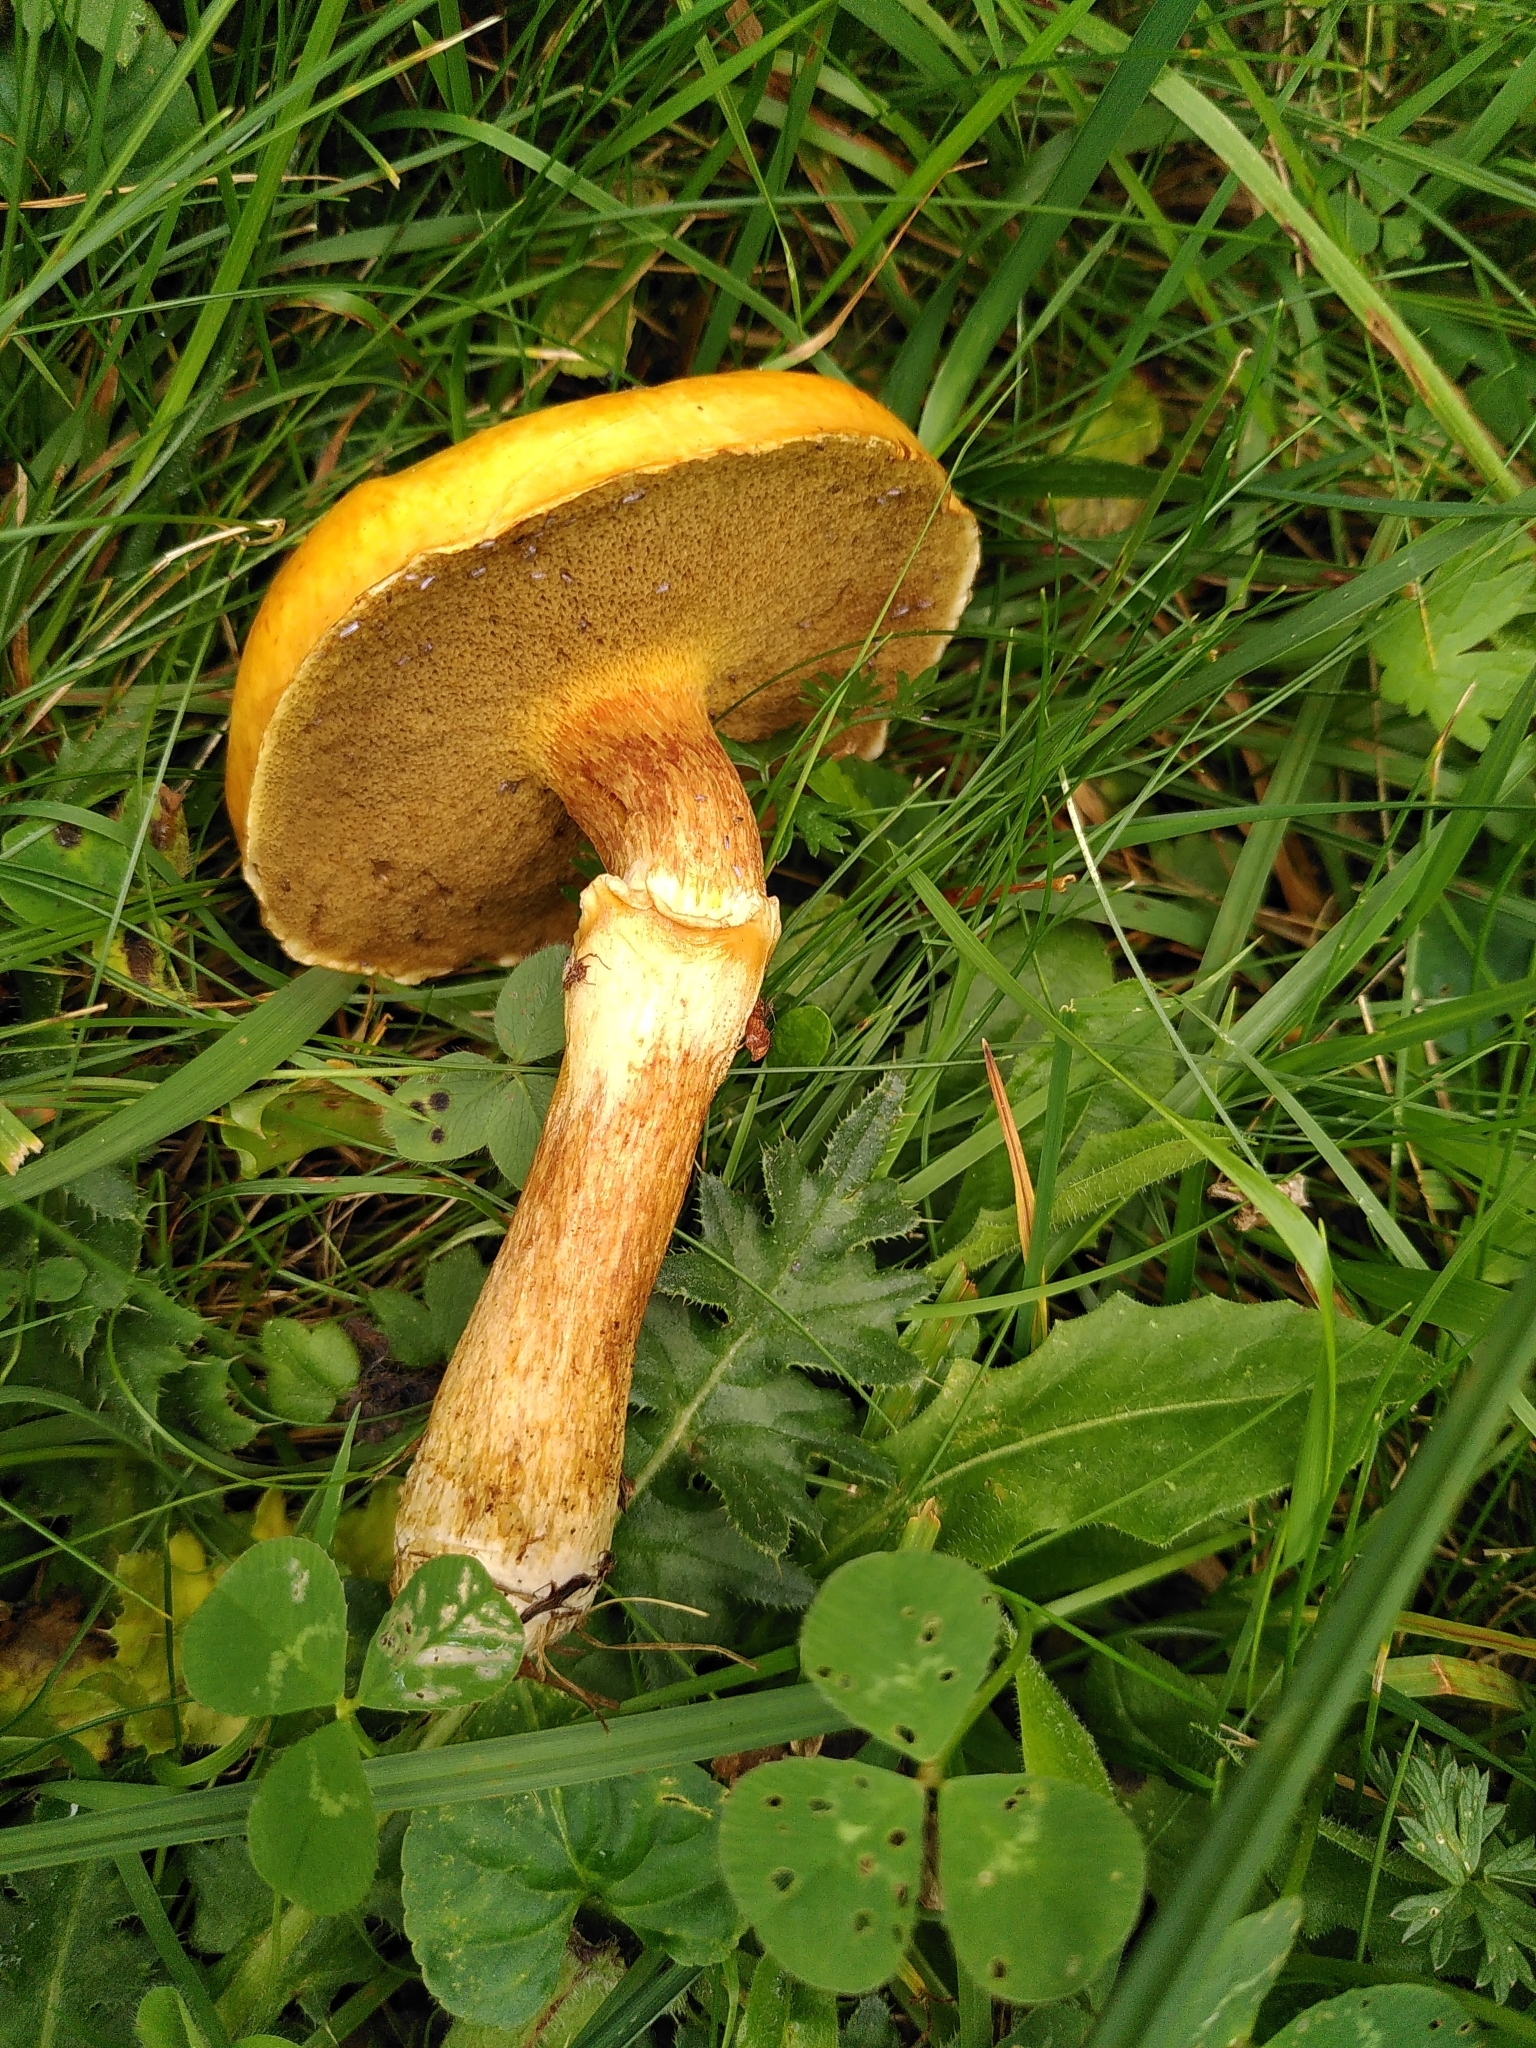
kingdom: Fungi
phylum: Basidiomycota
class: Agaricomycetes
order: Boletales
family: Suillaceae
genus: Suillus
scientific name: Suillus grevillei
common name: Larch bolete
